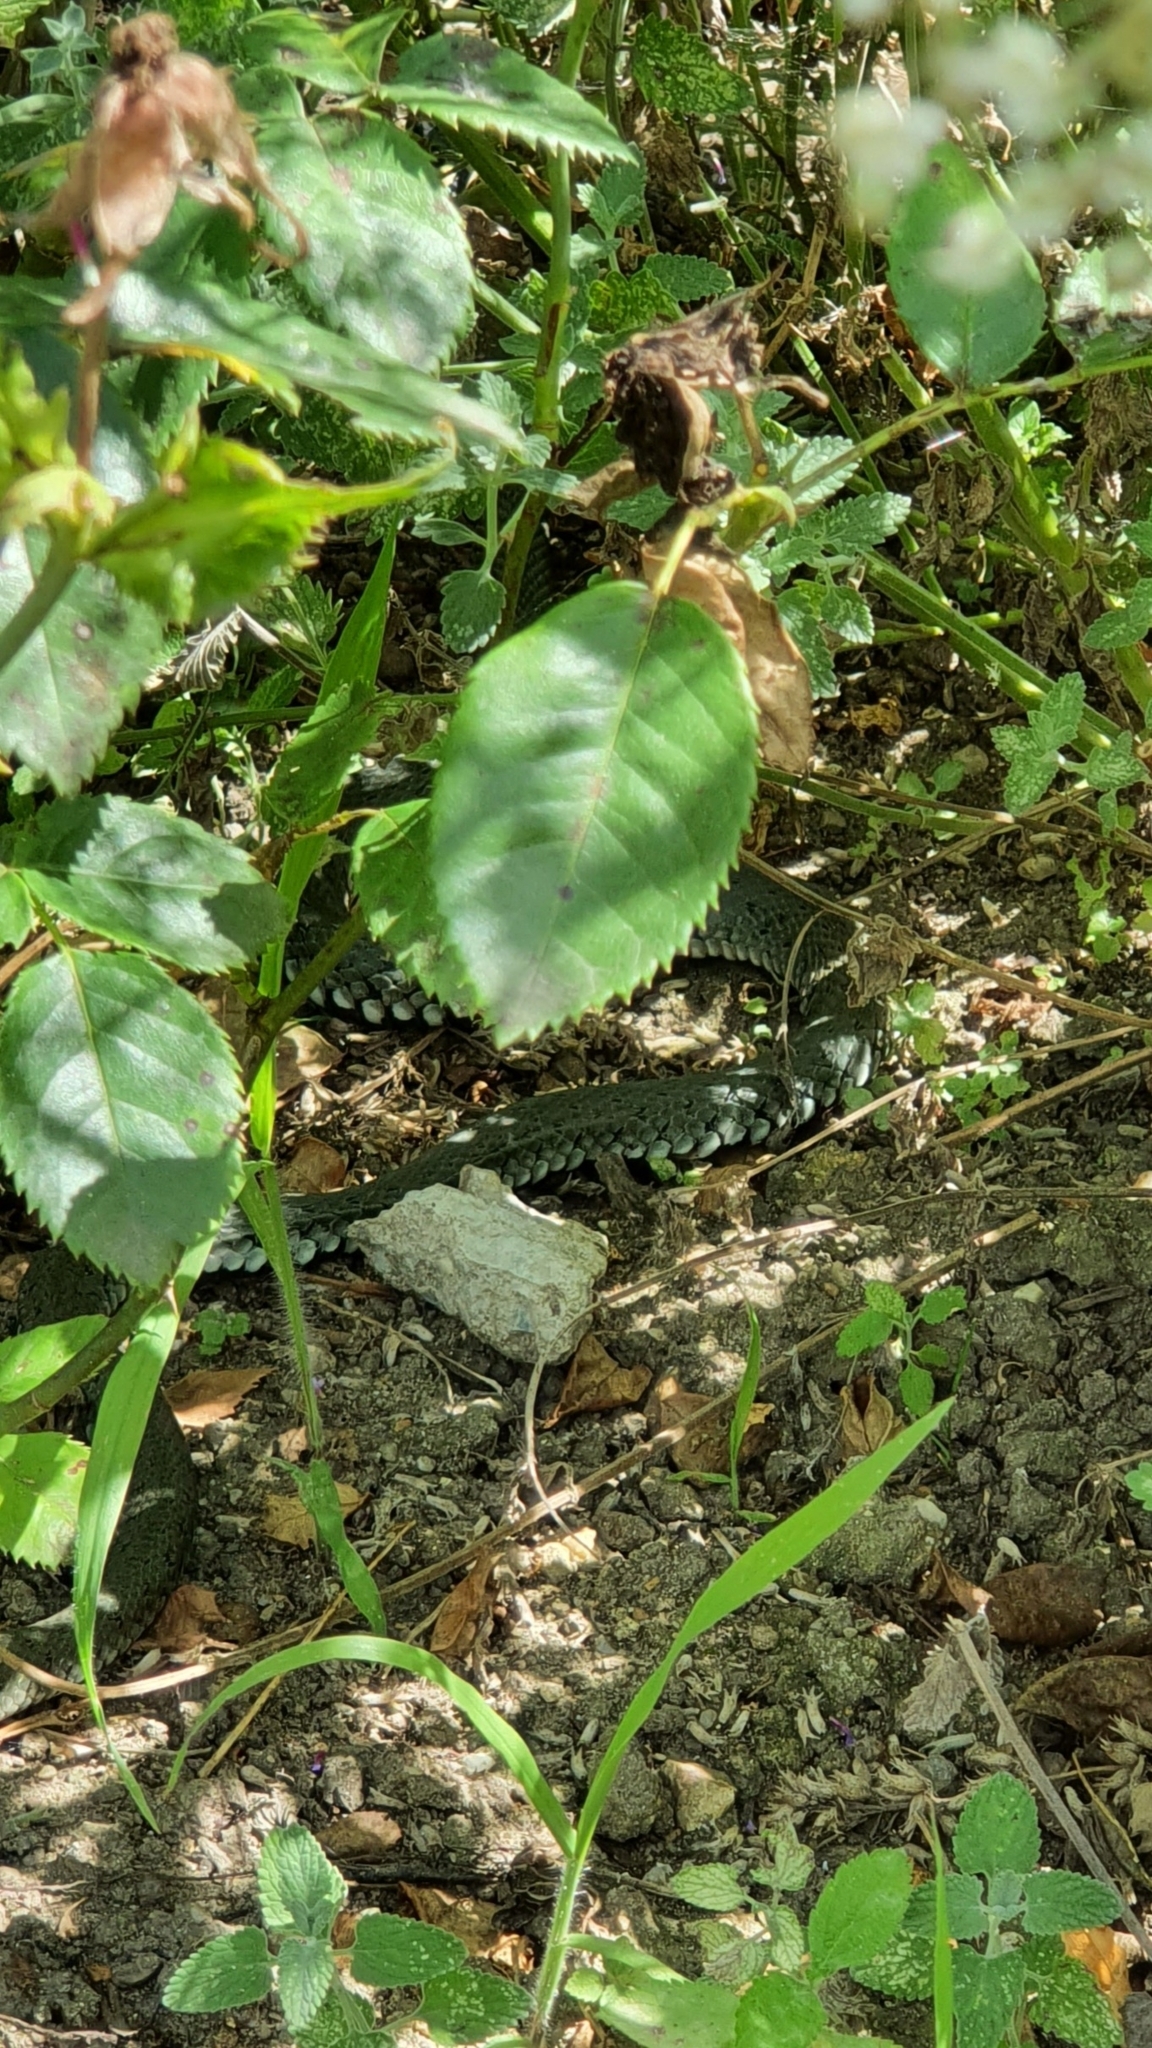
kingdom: Animalia
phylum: Chordata
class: Squamata
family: Colubridae
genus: Natrix
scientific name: Natrix natrix
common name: Grass snake
